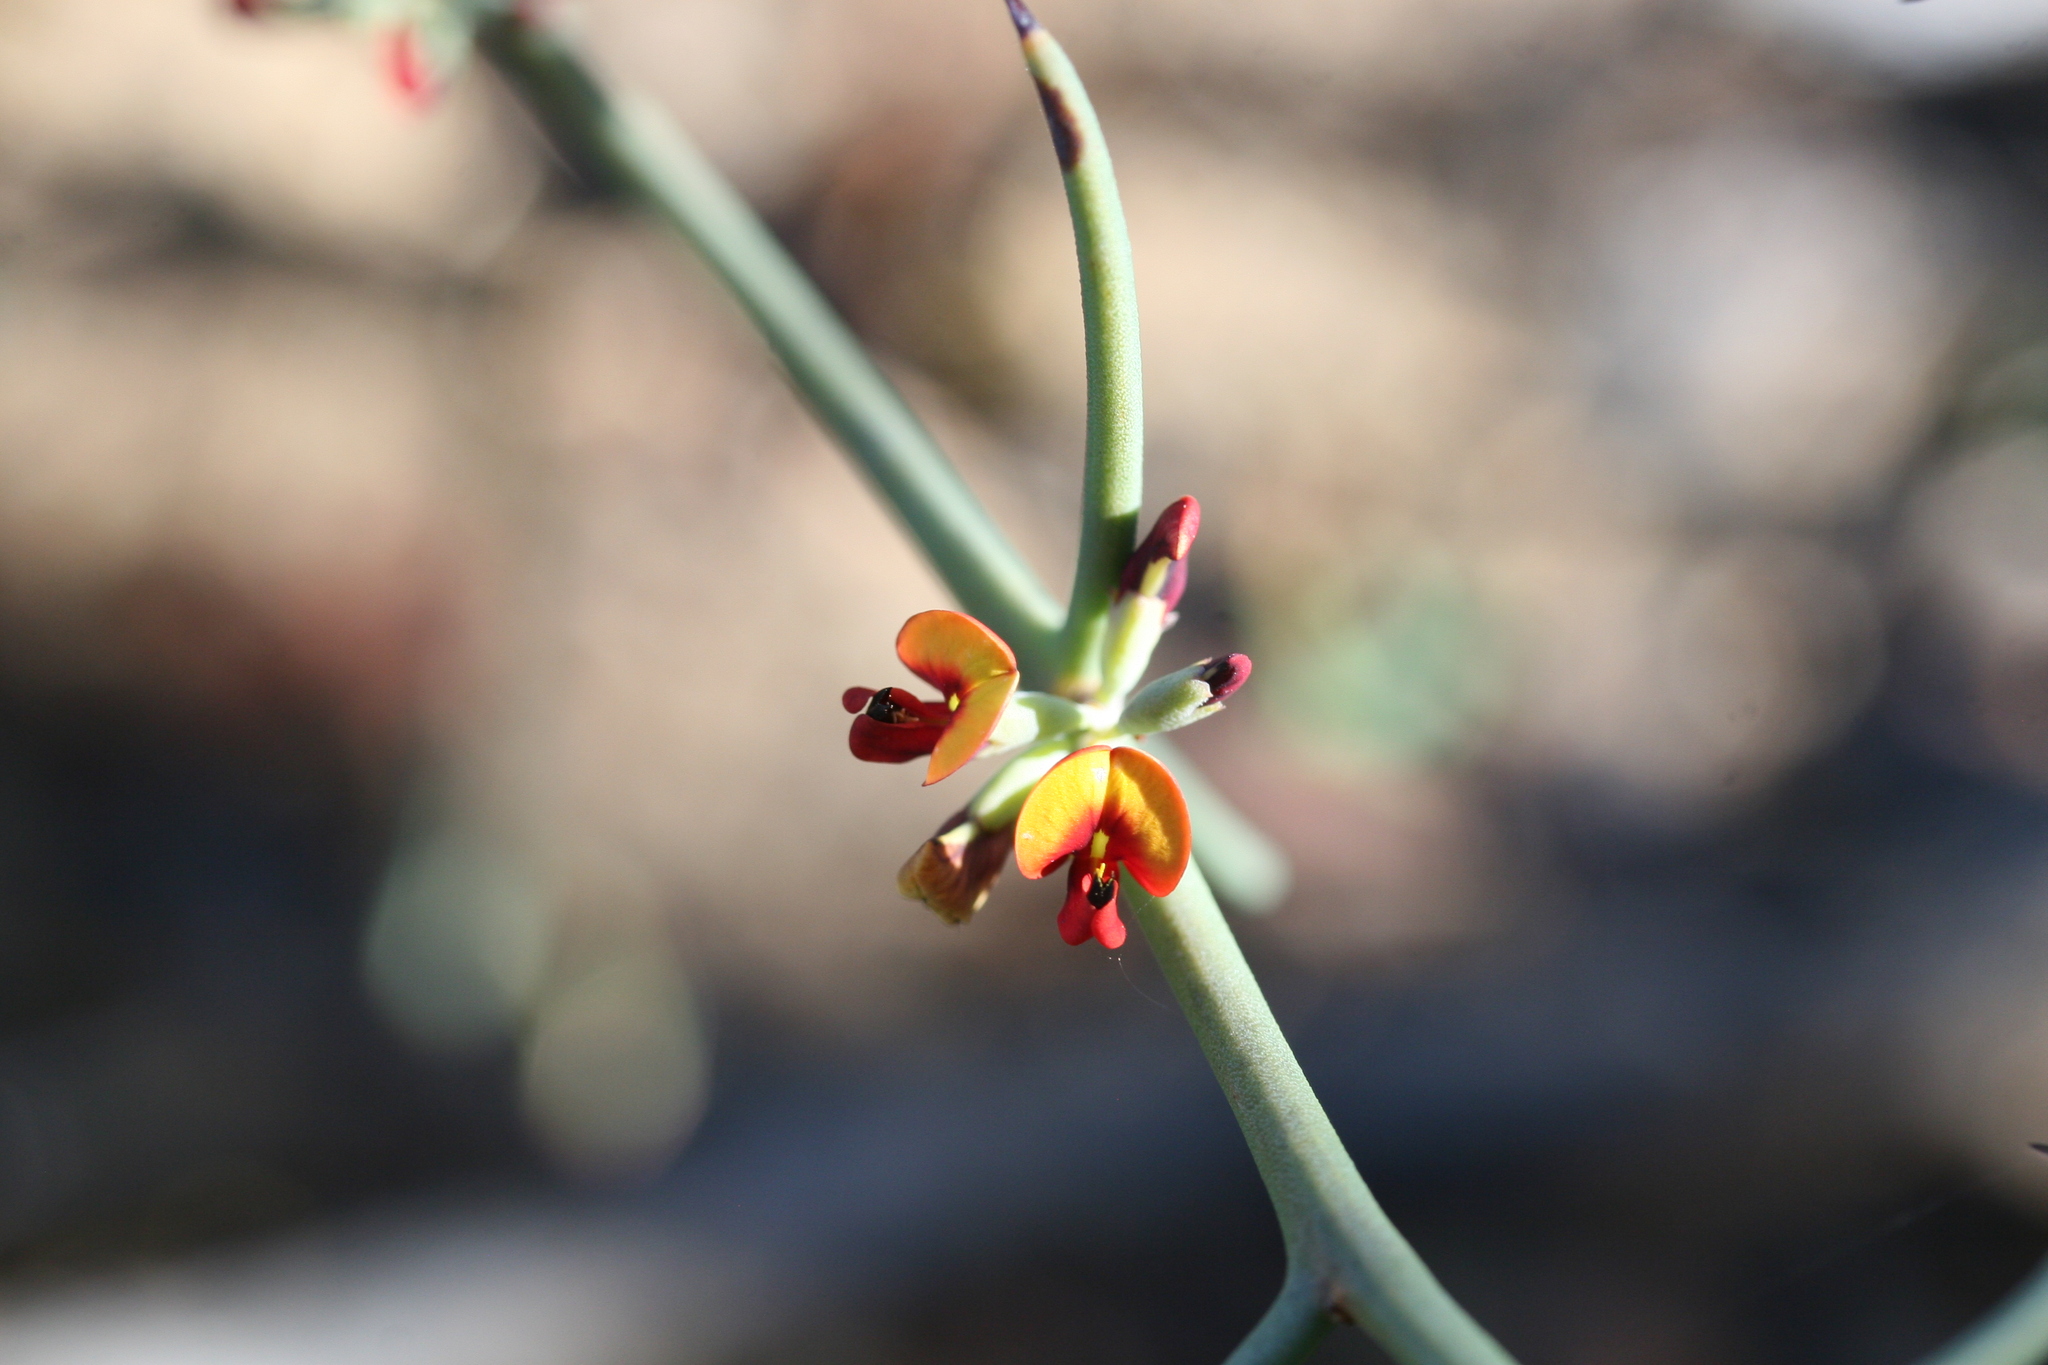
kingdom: Plantae
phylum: Tracheophyta
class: Magnoliopsida
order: Fabales
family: Fabaceae
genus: Daviesia
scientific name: Daviesia uncinata
